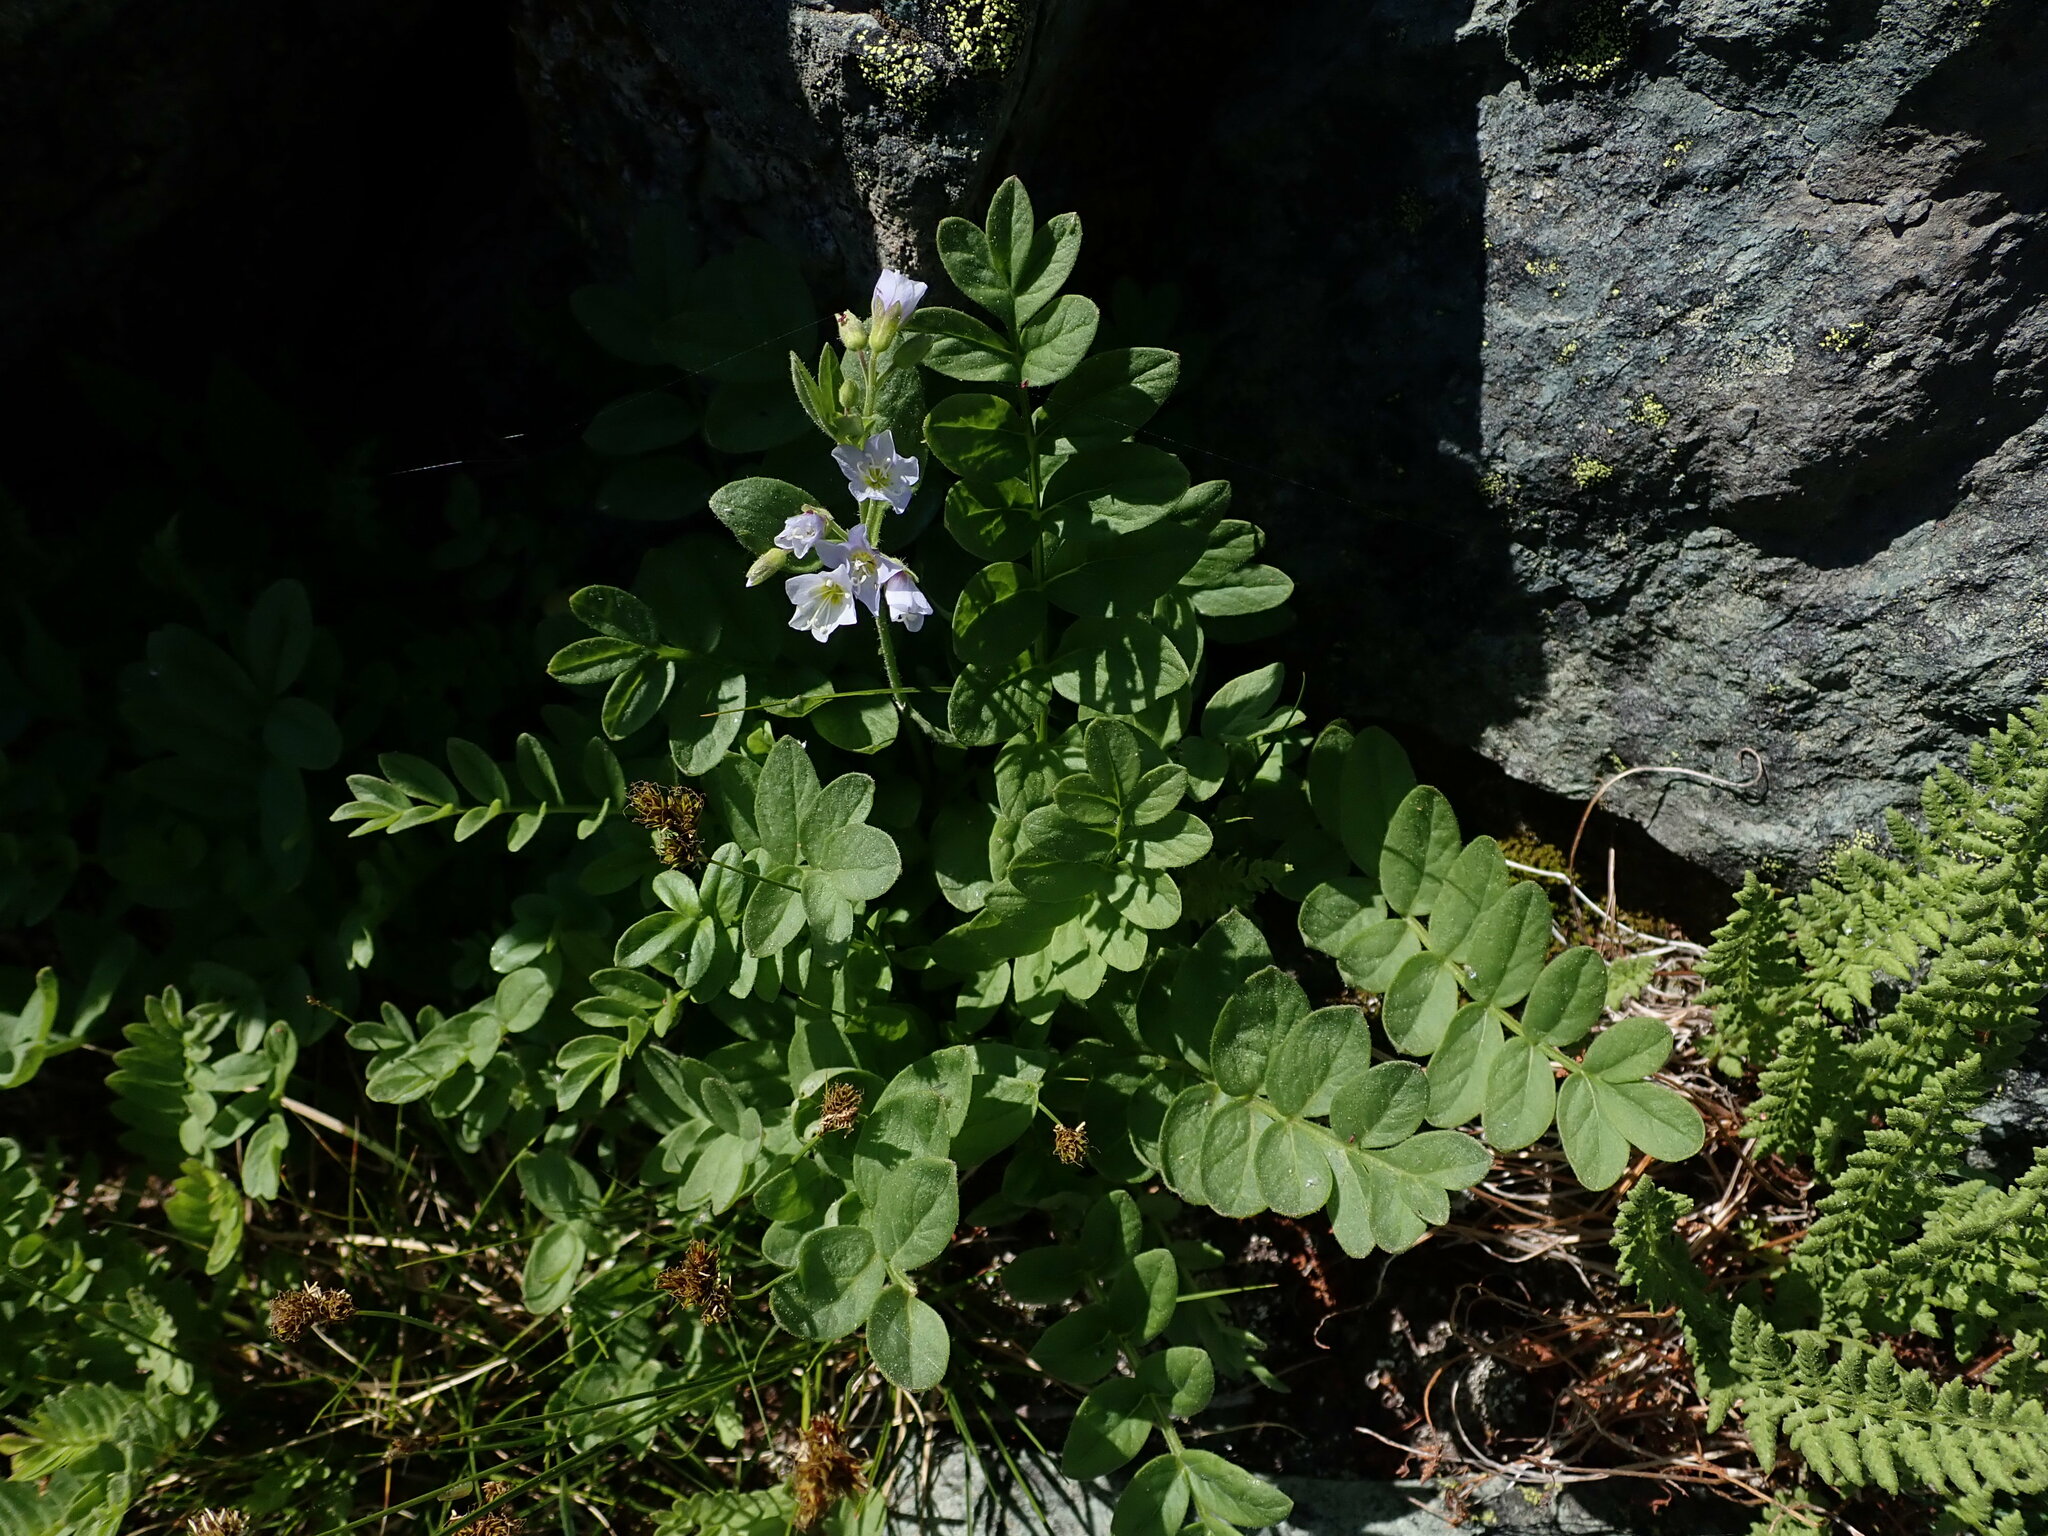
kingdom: Plantae
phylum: Tracheophyta
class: Magnoliopsida
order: Ericales
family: Polemoniaceae
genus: Polemonium
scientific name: Polemonium californicum
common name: California jacob's ladder
